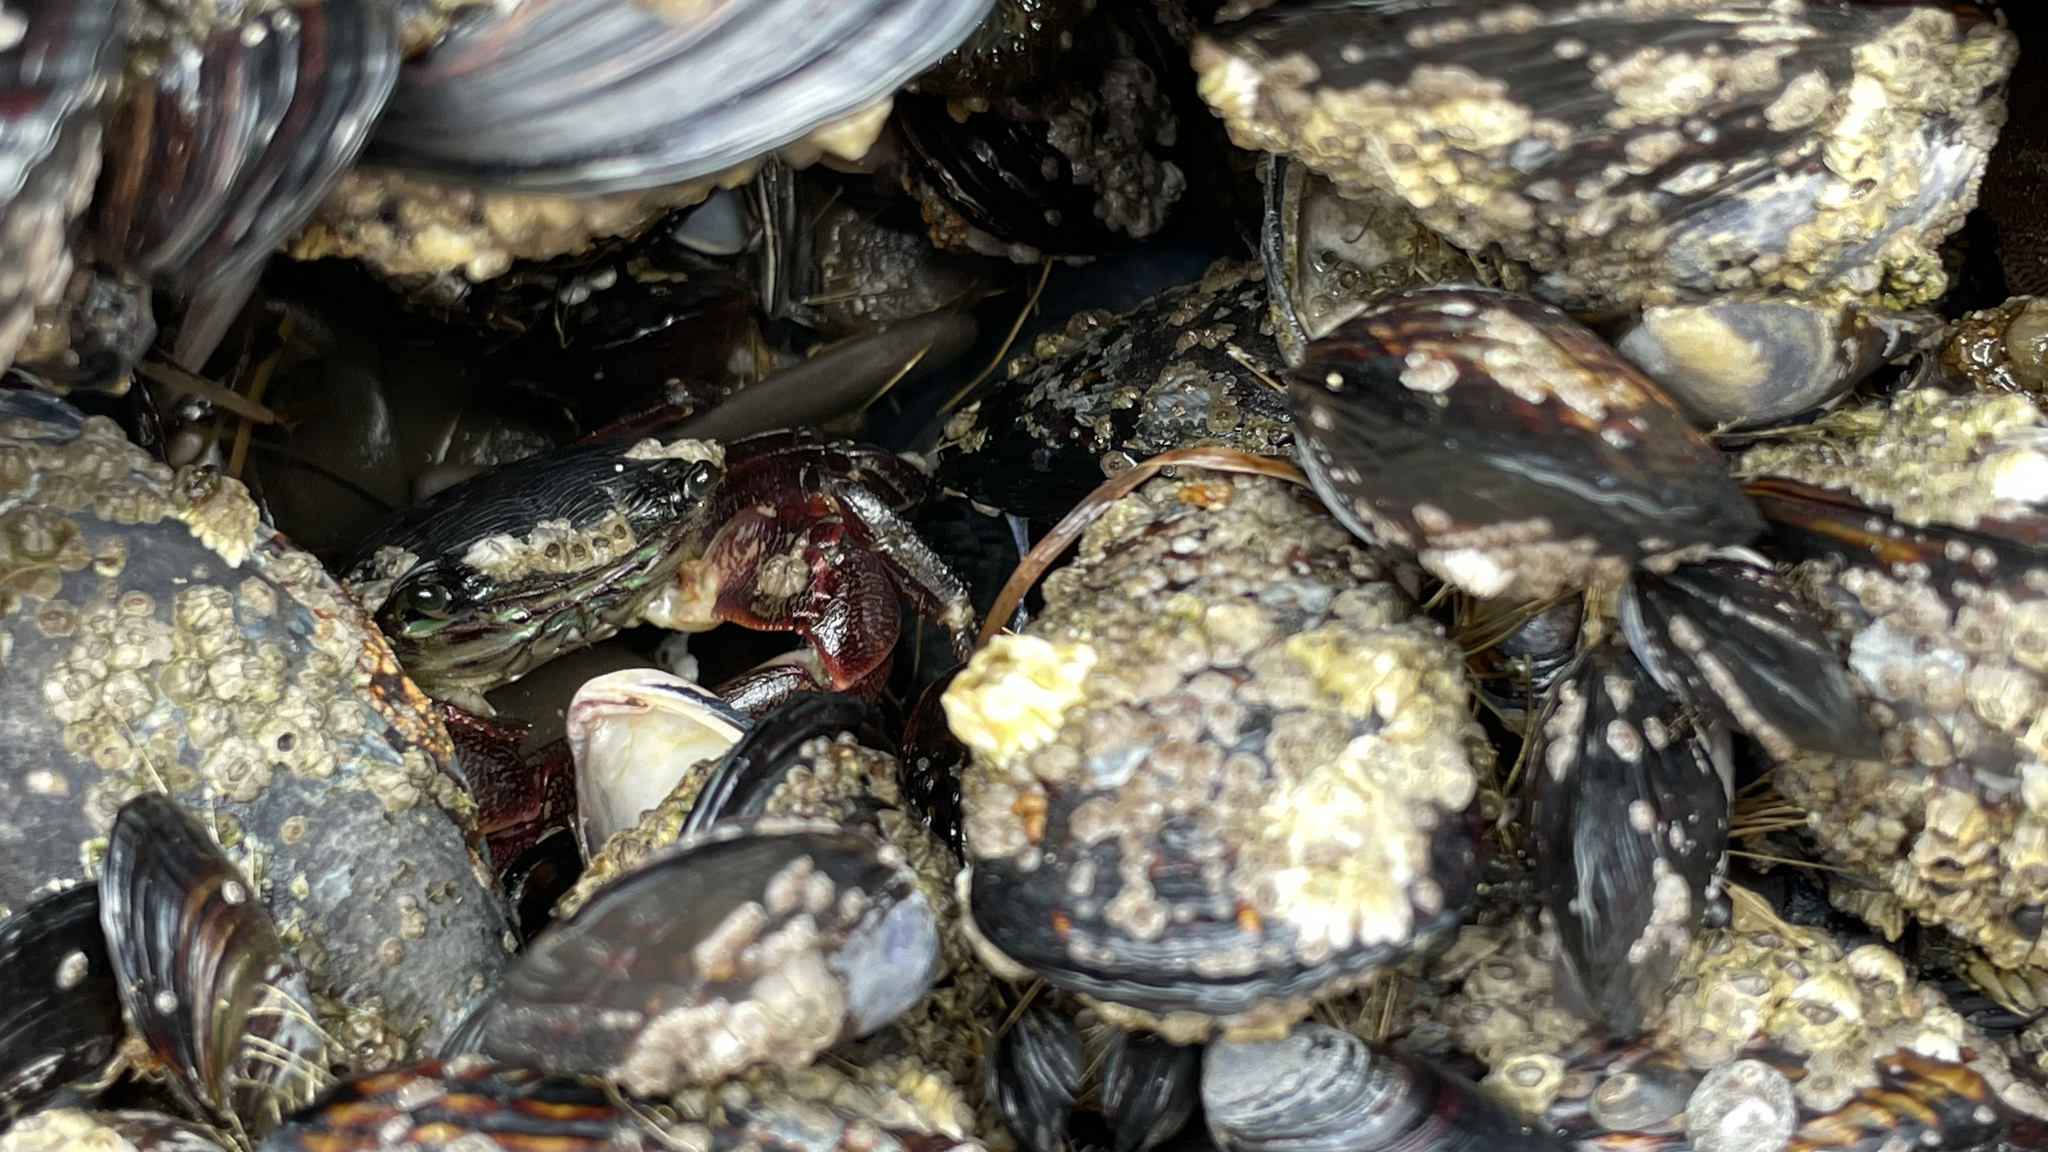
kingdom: Animalia
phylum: Arthropoda
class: Malacostraca
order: Decapoda
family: Grapsidae
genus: Pachygrapsus
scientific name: Pachygrapsus crassipes
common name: Striped shore crab
